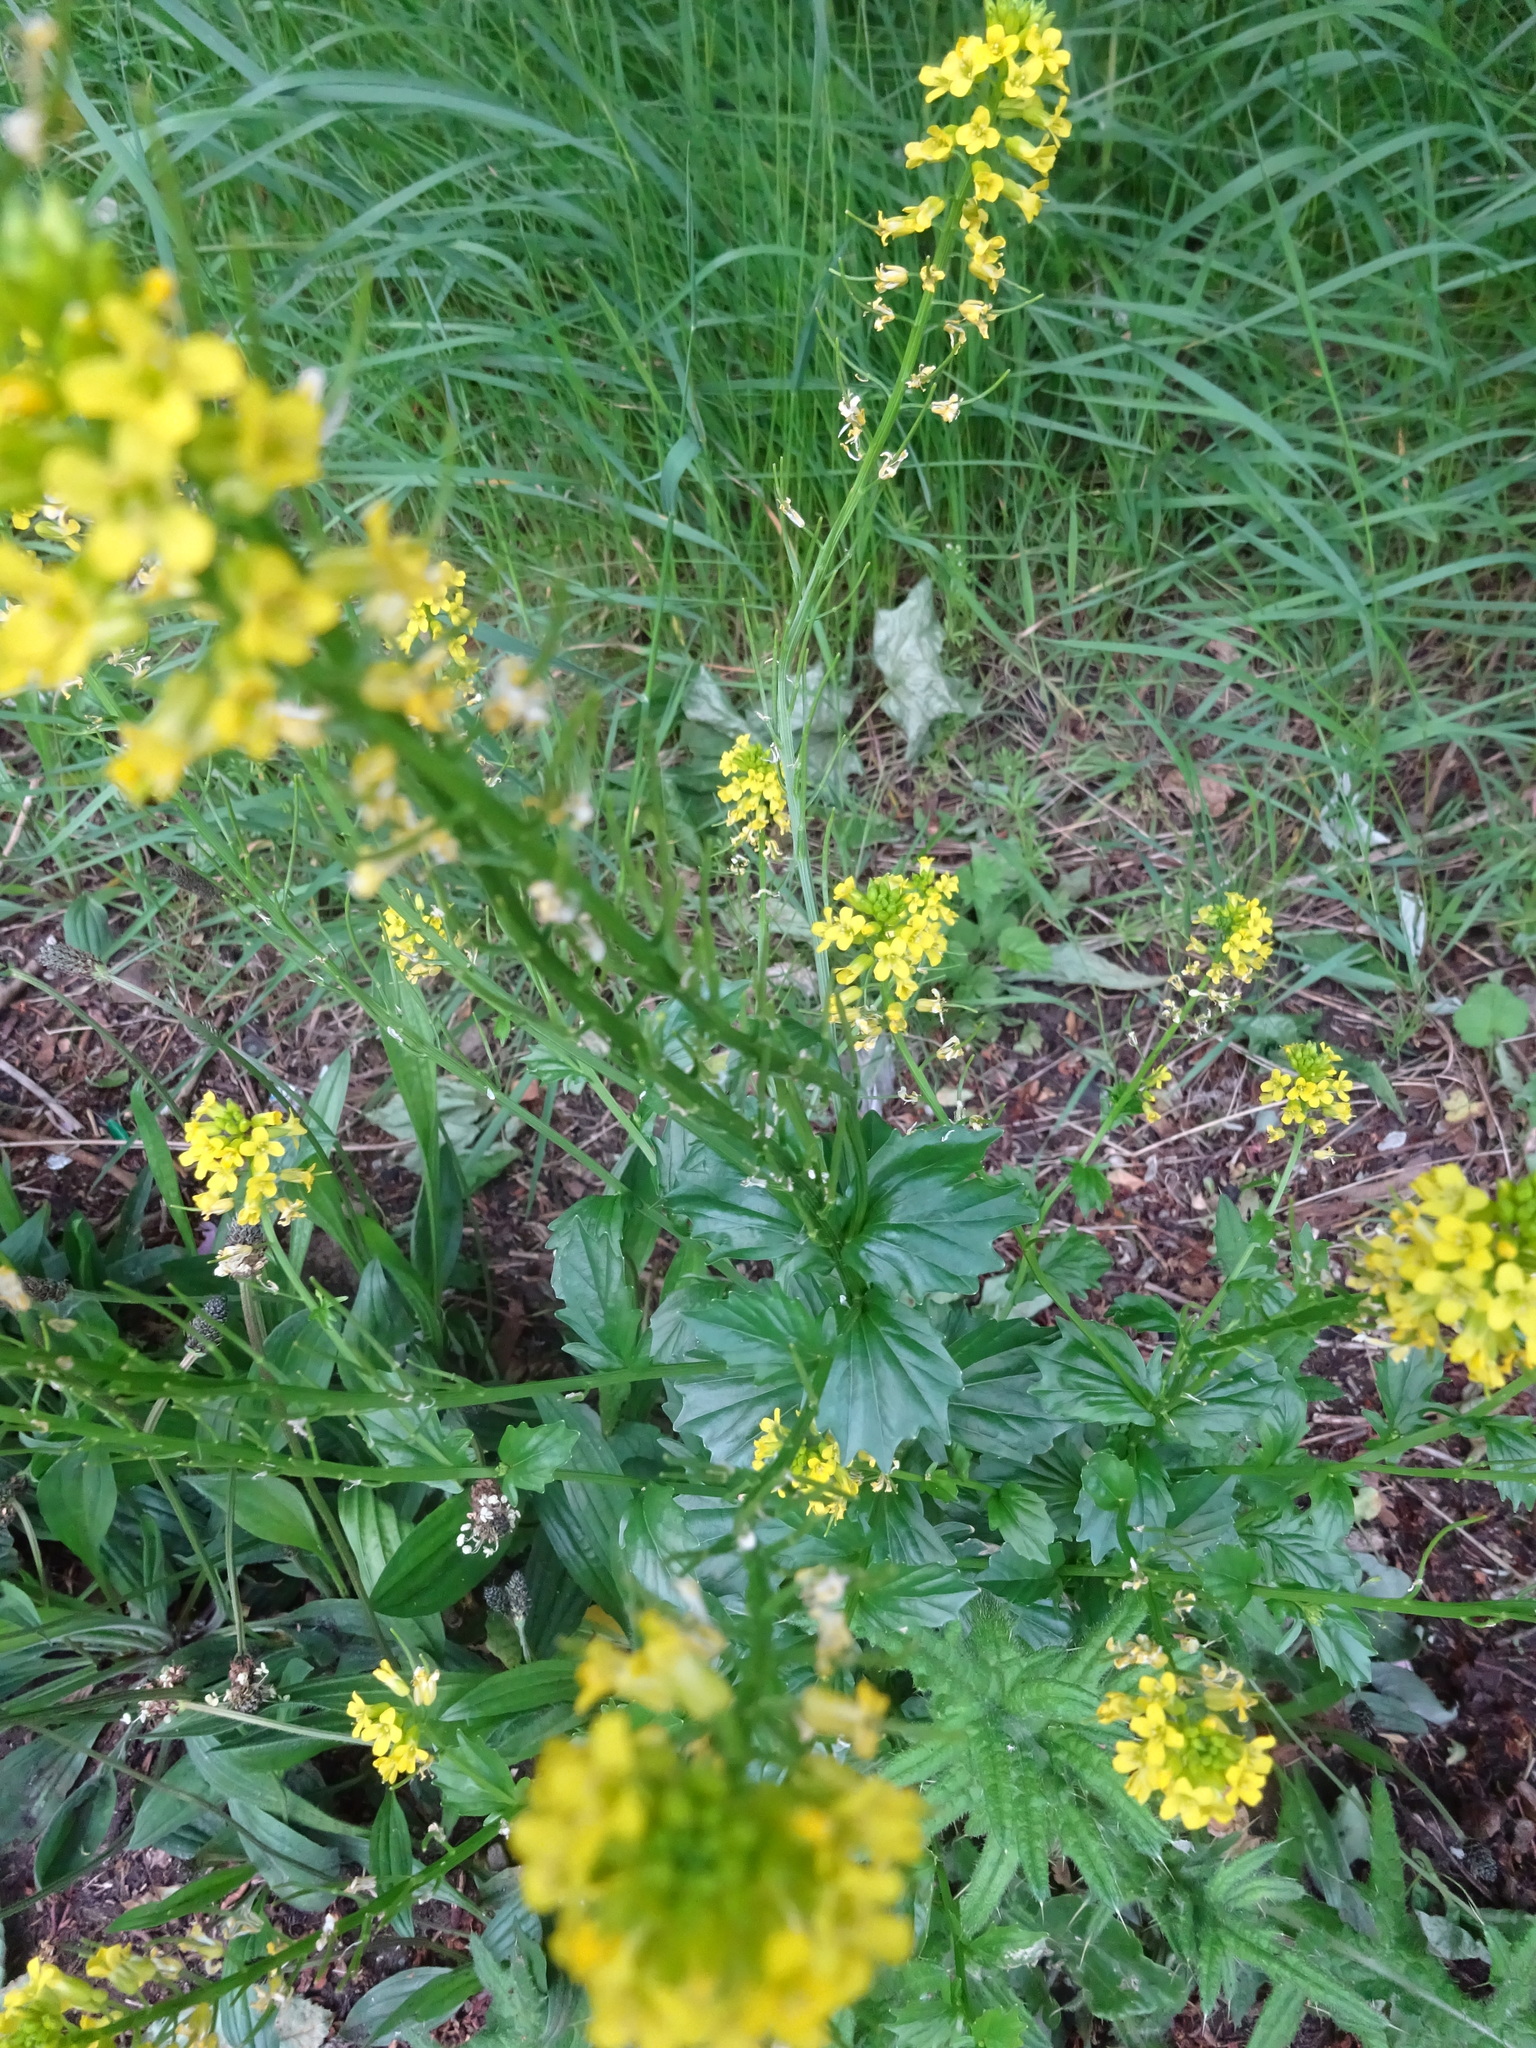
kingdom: Plantae
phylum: Tracheophyta
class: Magnoliopsida
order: Brassicales
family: Brassicaceae
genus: Barbarea
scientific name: Barbarea vulgaris
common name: Cressy-greens
